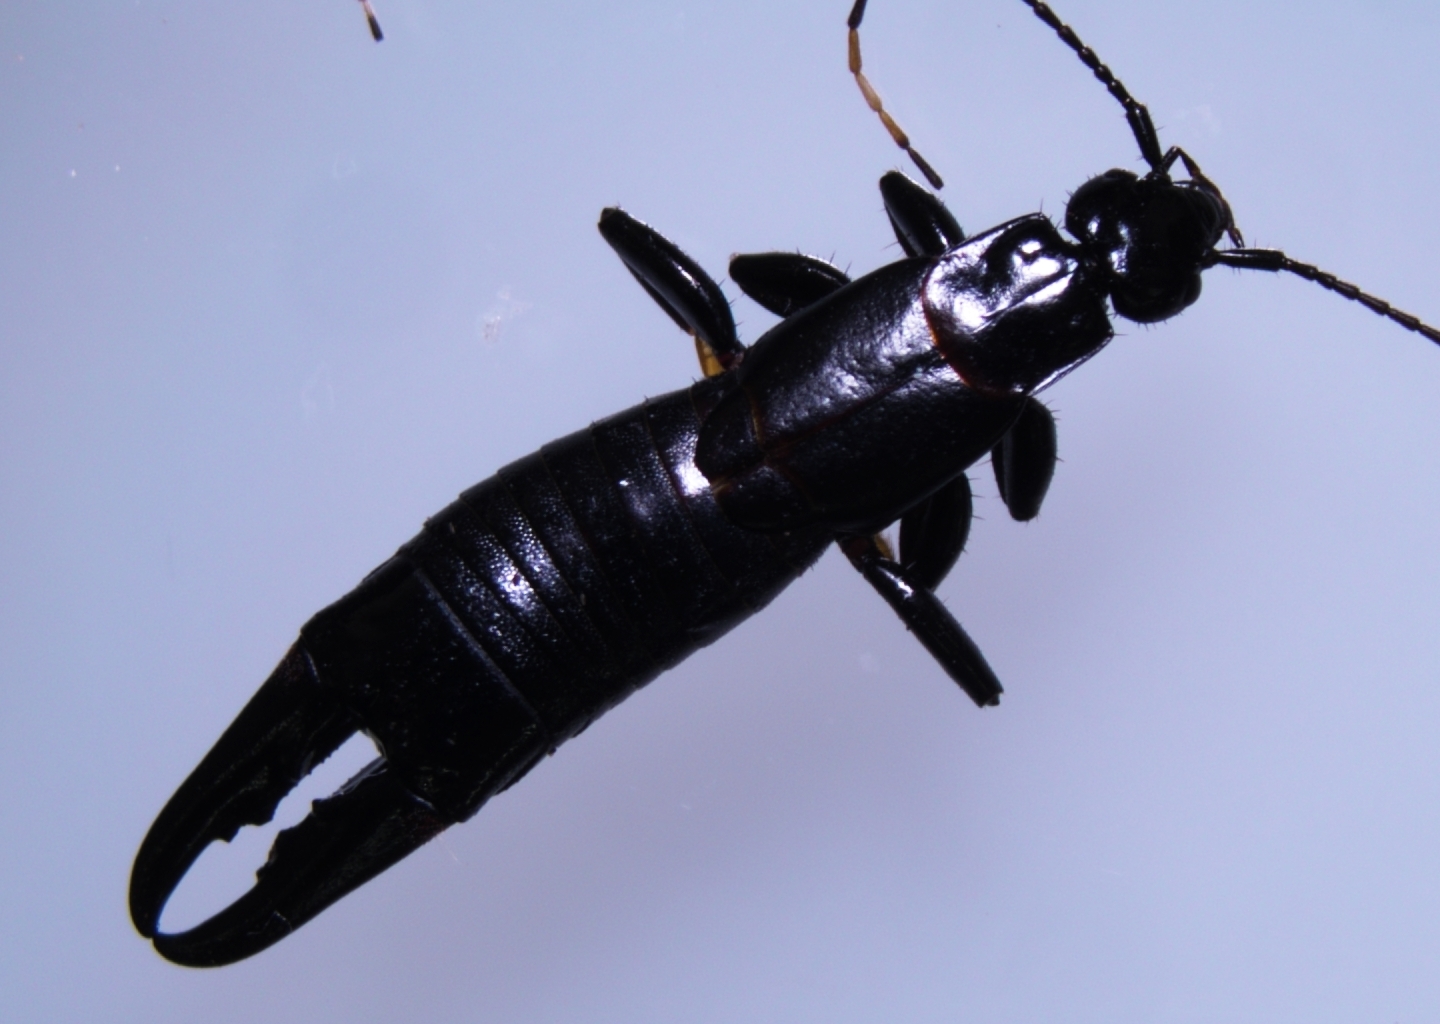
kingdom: Animalia
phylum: Arthropoda
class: Insecta
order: Dermaptera
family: Chelisochidae
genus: Chelisoches
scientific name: Chelisoches morio
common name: Black earwig
